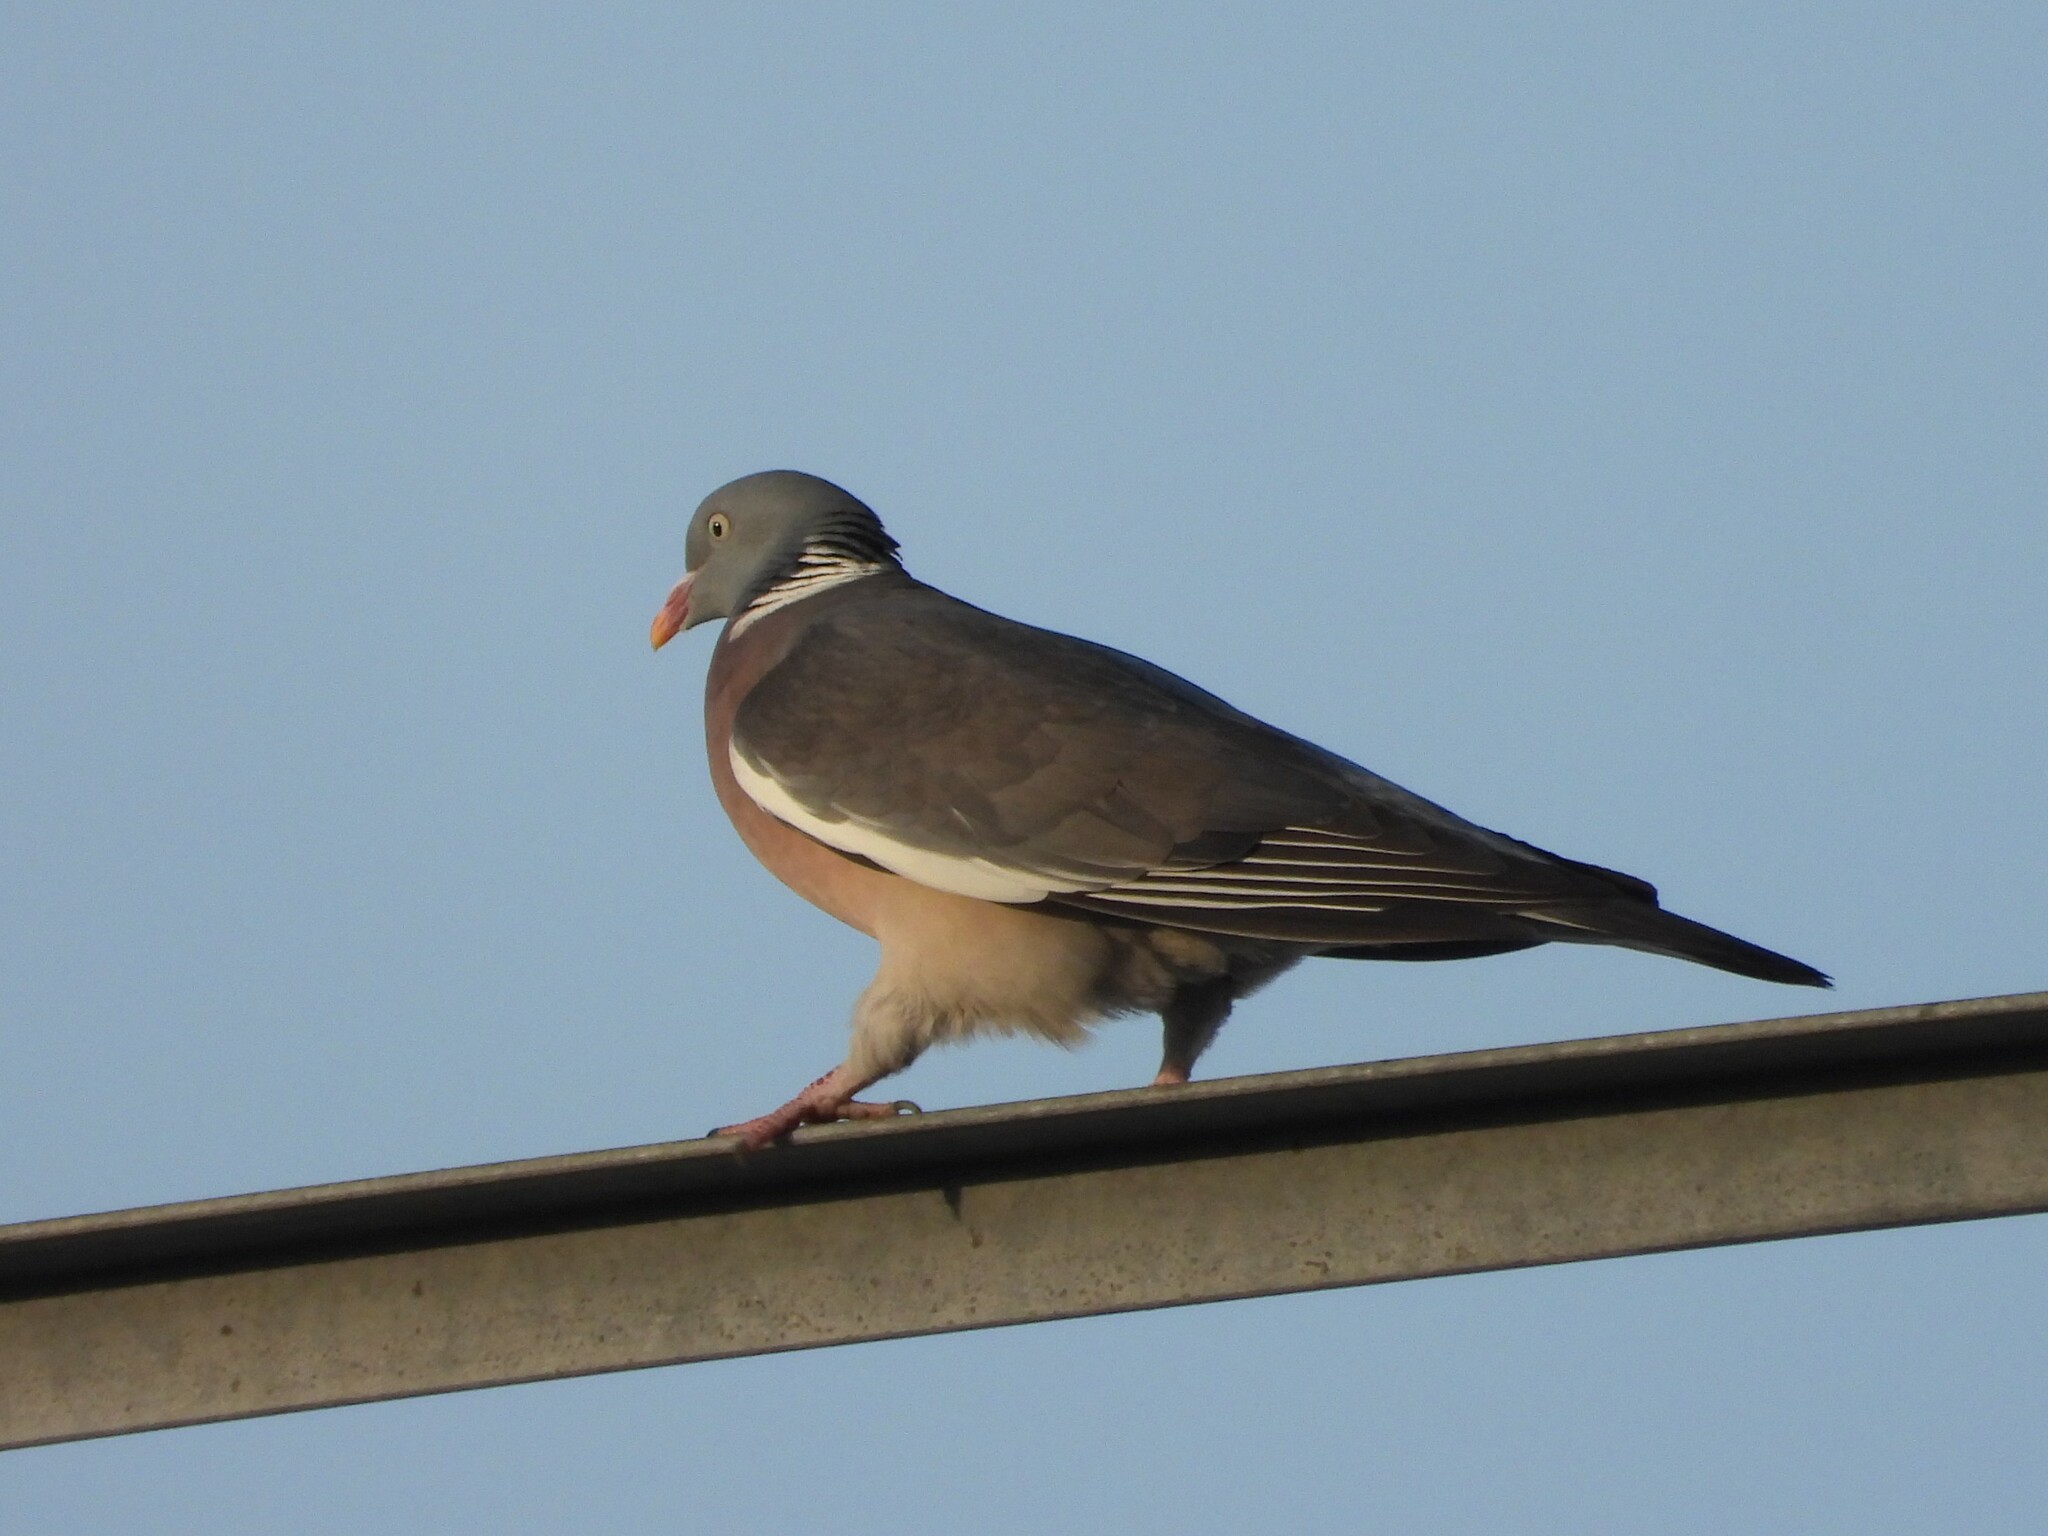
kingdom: Animalia
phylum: Chordata
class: Aves
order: Columbiformes
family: Columbidae
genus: Columba
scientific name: Columba palumbus
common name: Common wood pigeon
